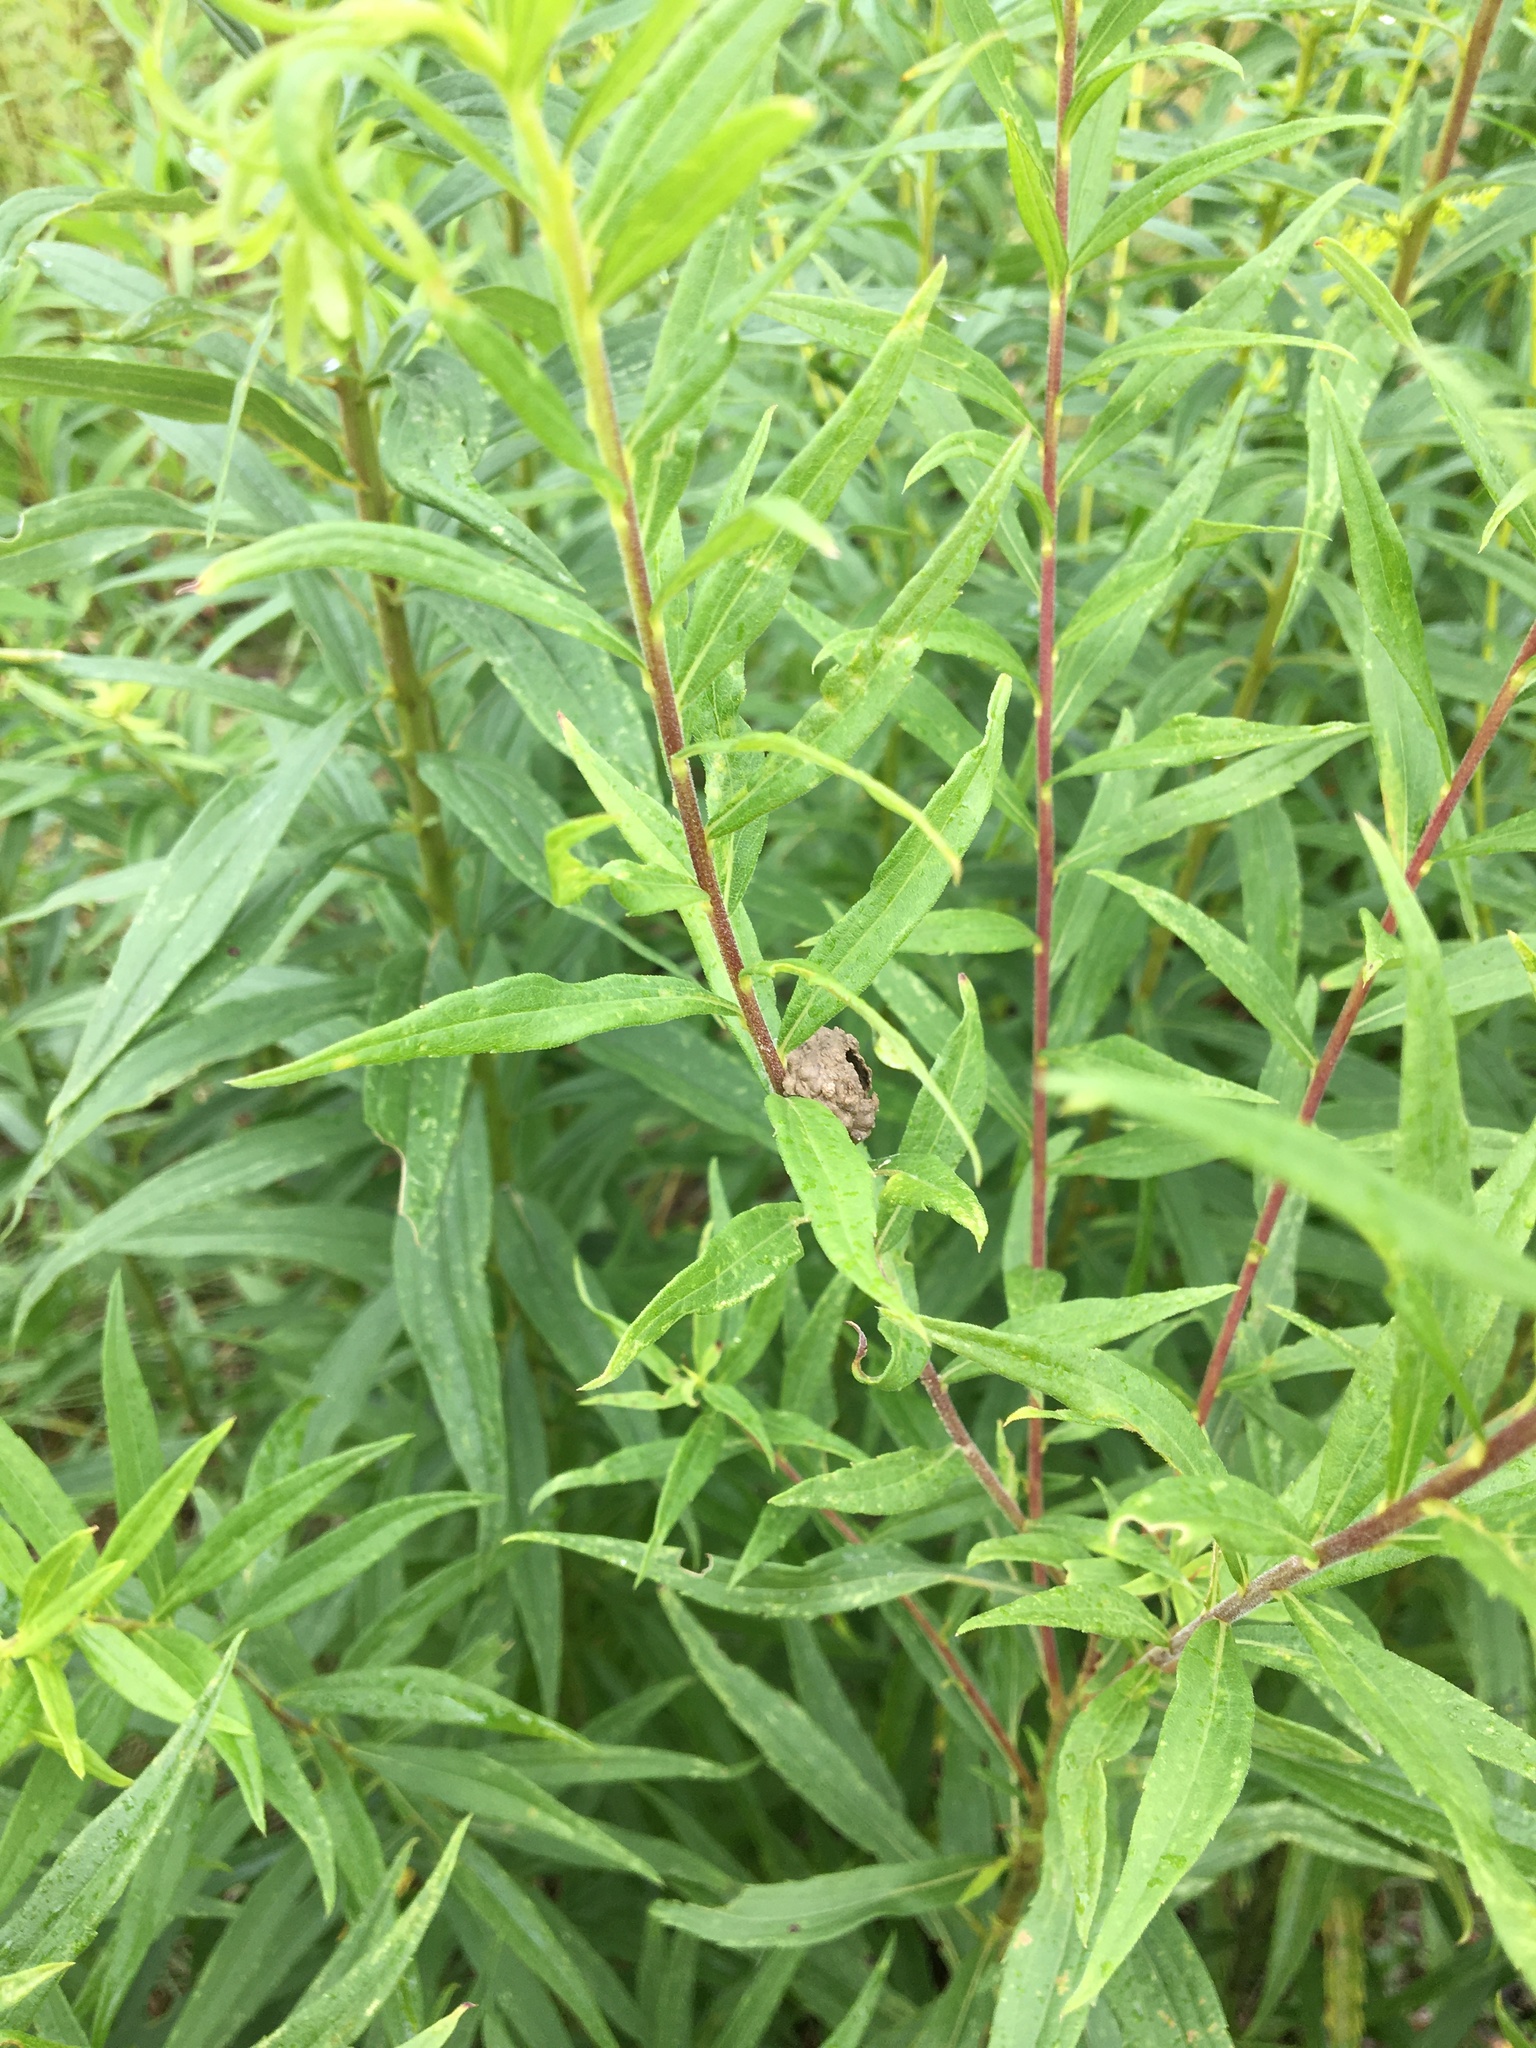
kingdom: Animalia
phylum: Arthropoda
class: Insecta
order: Hymenoptera
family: Vespidae
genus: Eumenes
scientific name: Eumenes
